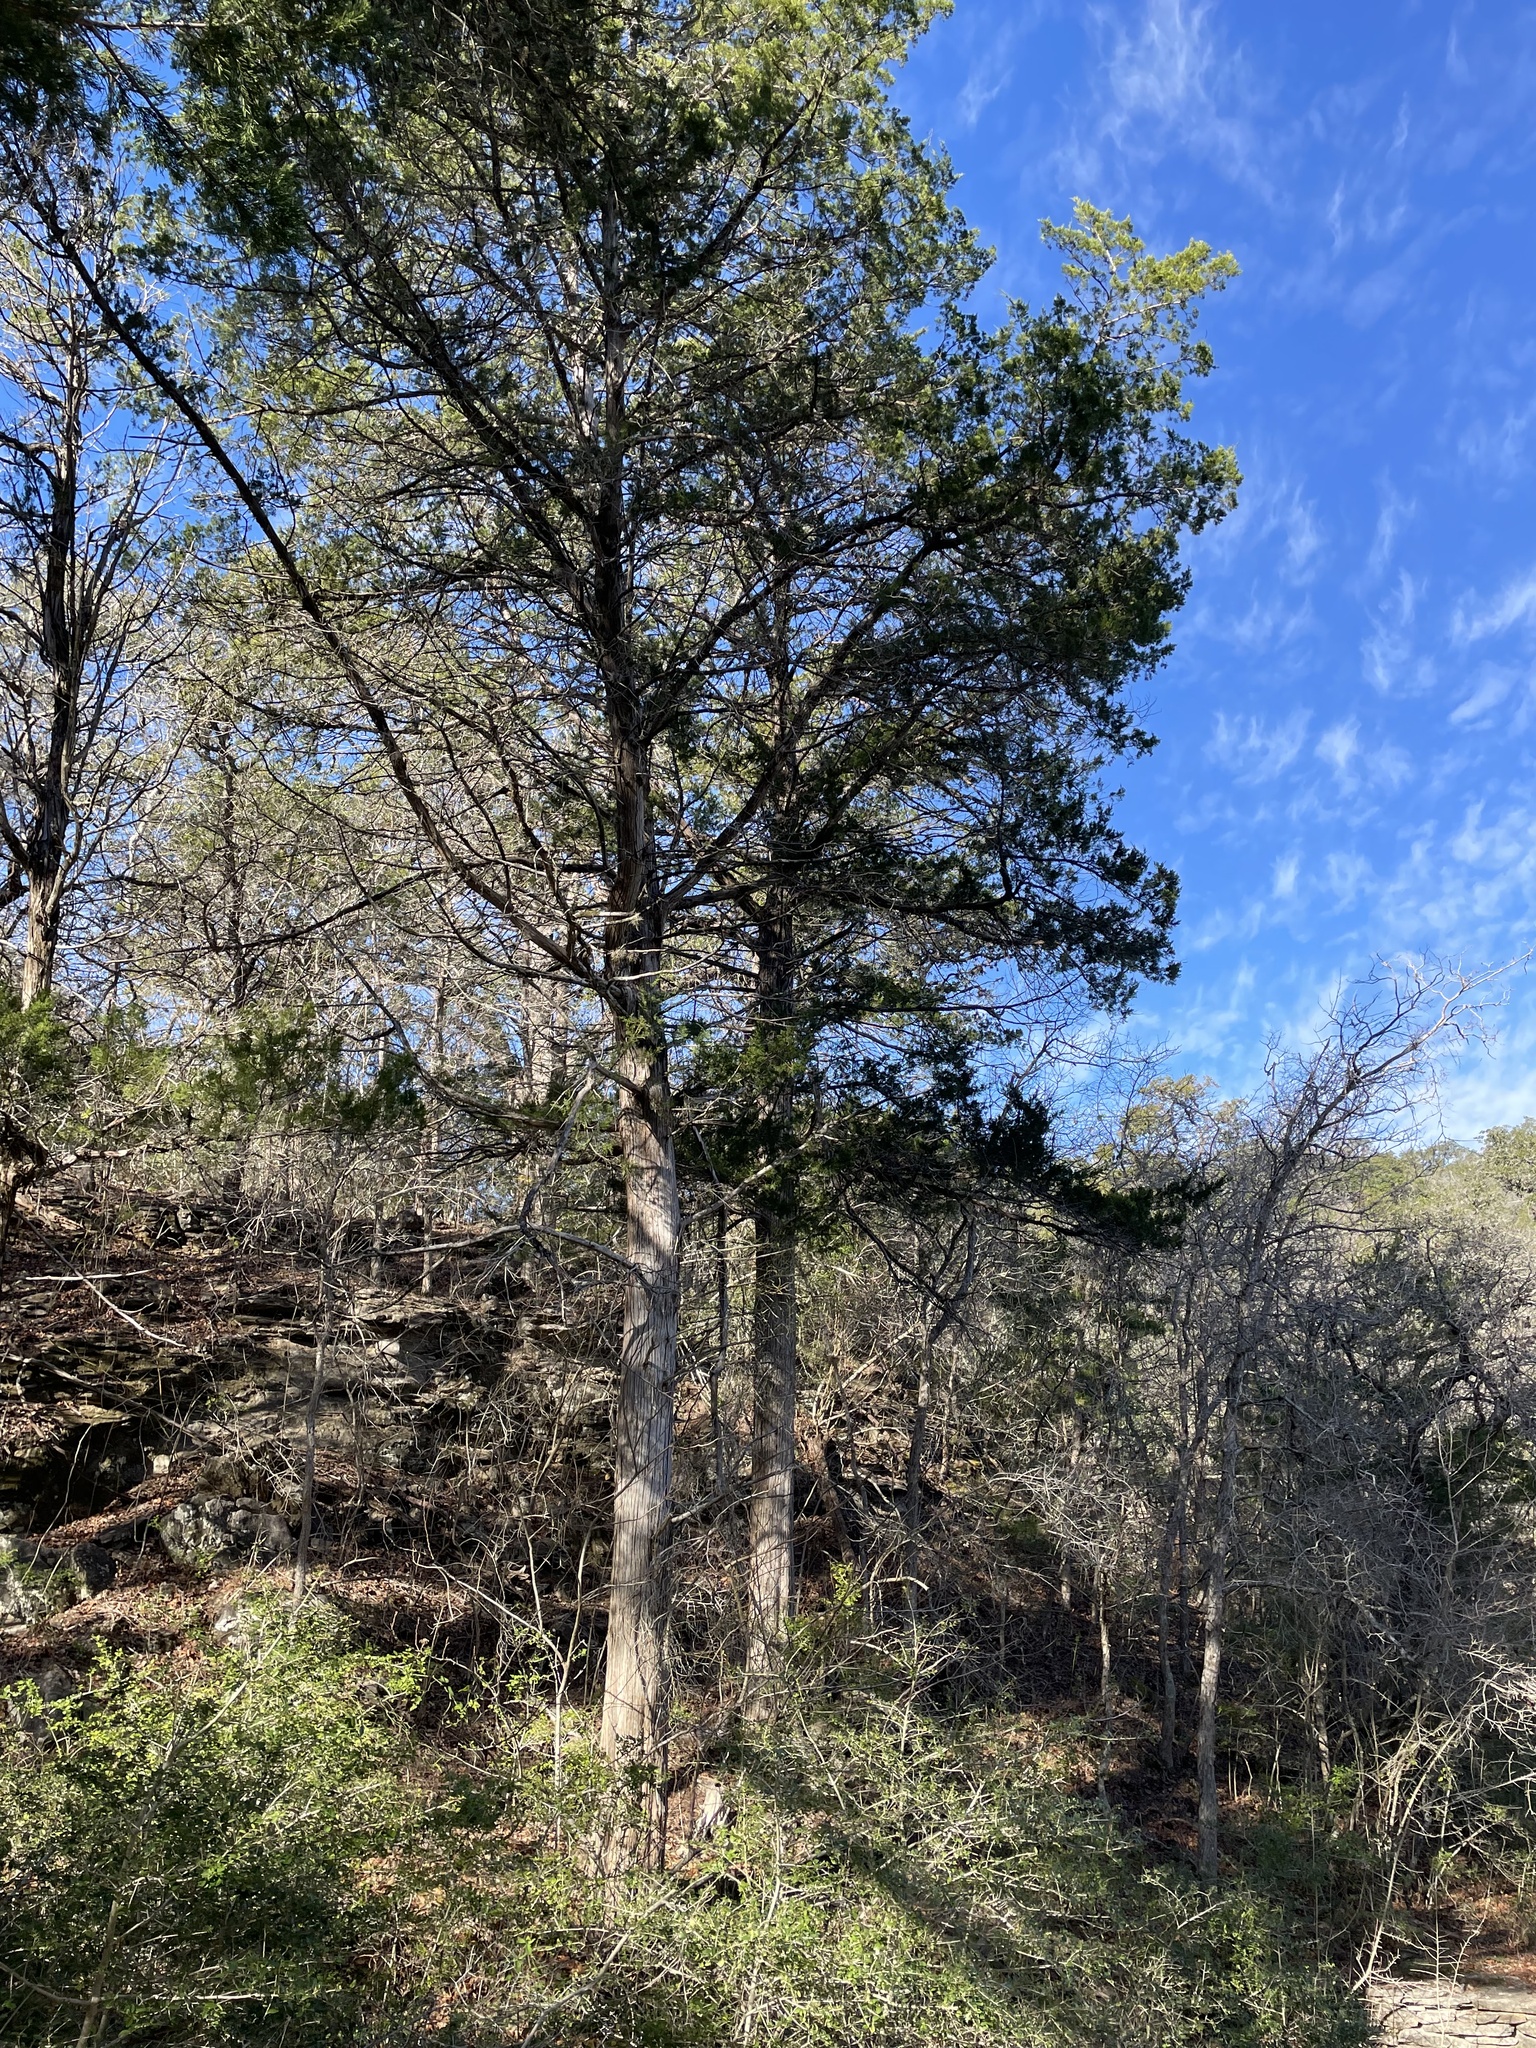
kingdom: Plantae
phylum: Tracheophyta
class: Pinopsida
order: Pinales
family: Cupressaceae
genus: Juniperus
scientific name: Juniperus virginiana
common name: Red juniper
